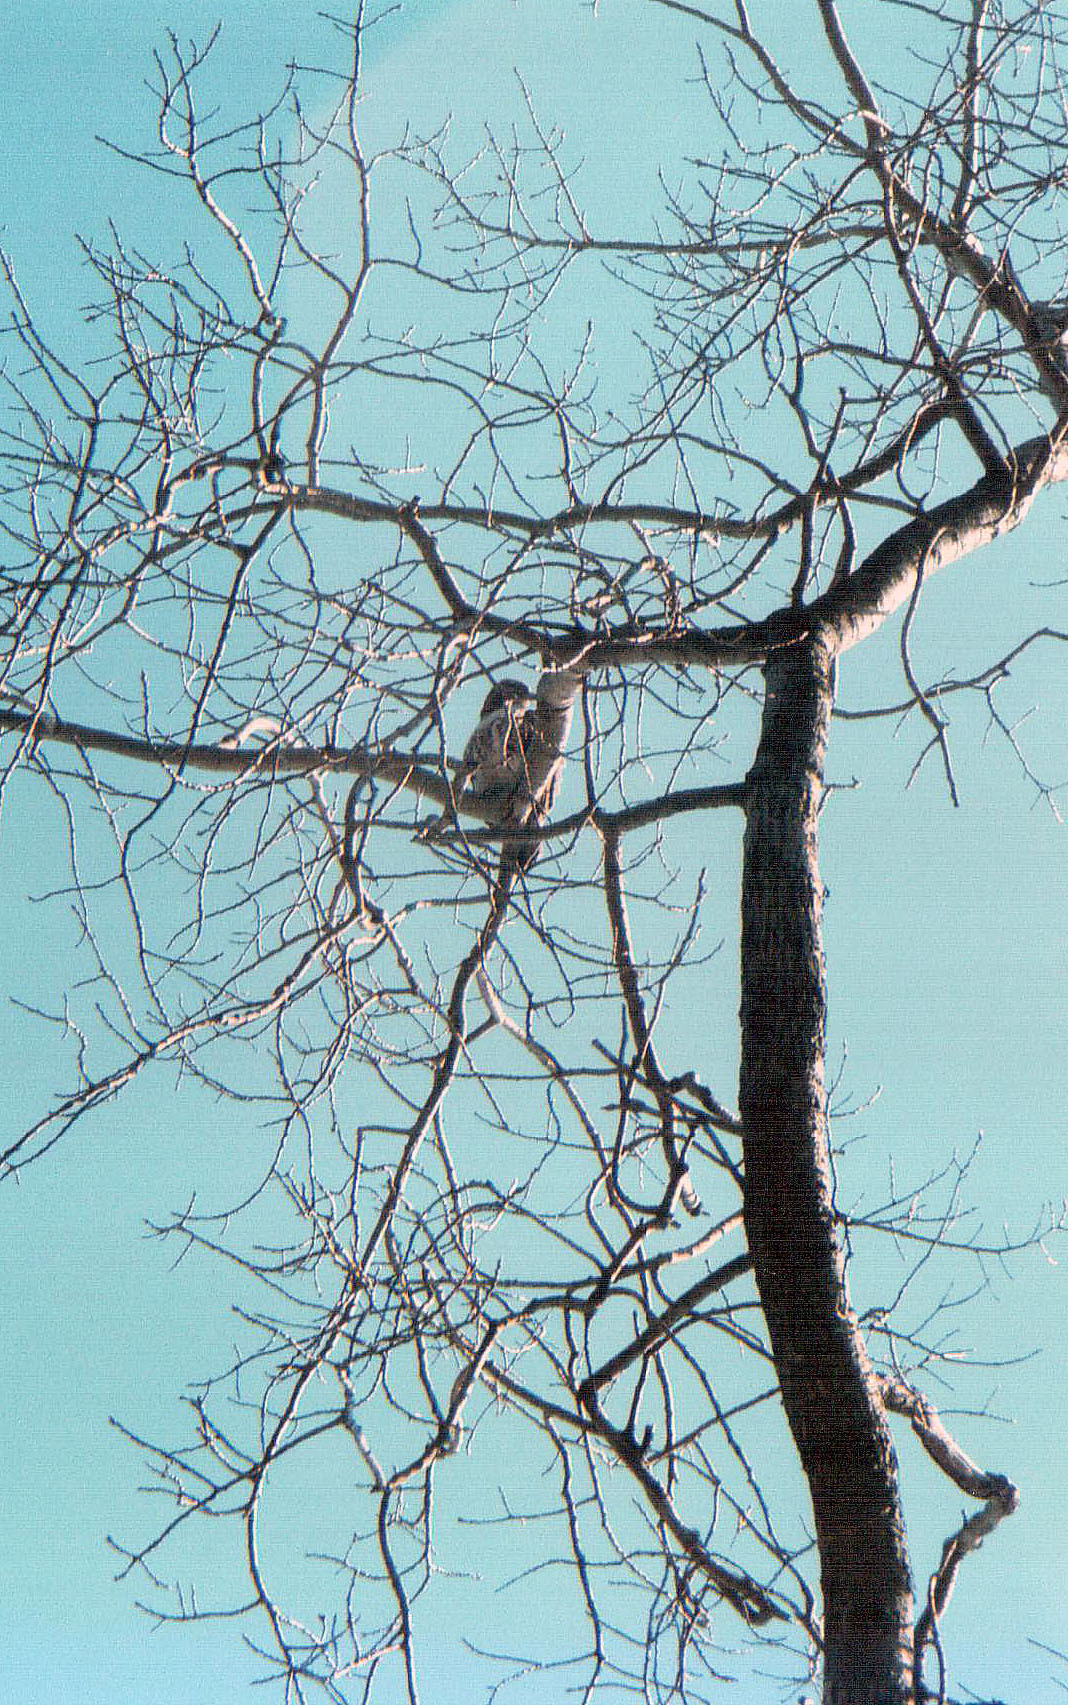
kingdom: Animalia
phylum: Chordata
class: Aves
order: Accipitriformes
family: Accipitridae
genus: Buteo
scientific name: Buteo jamaicensis
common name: Red-tailed hawk
